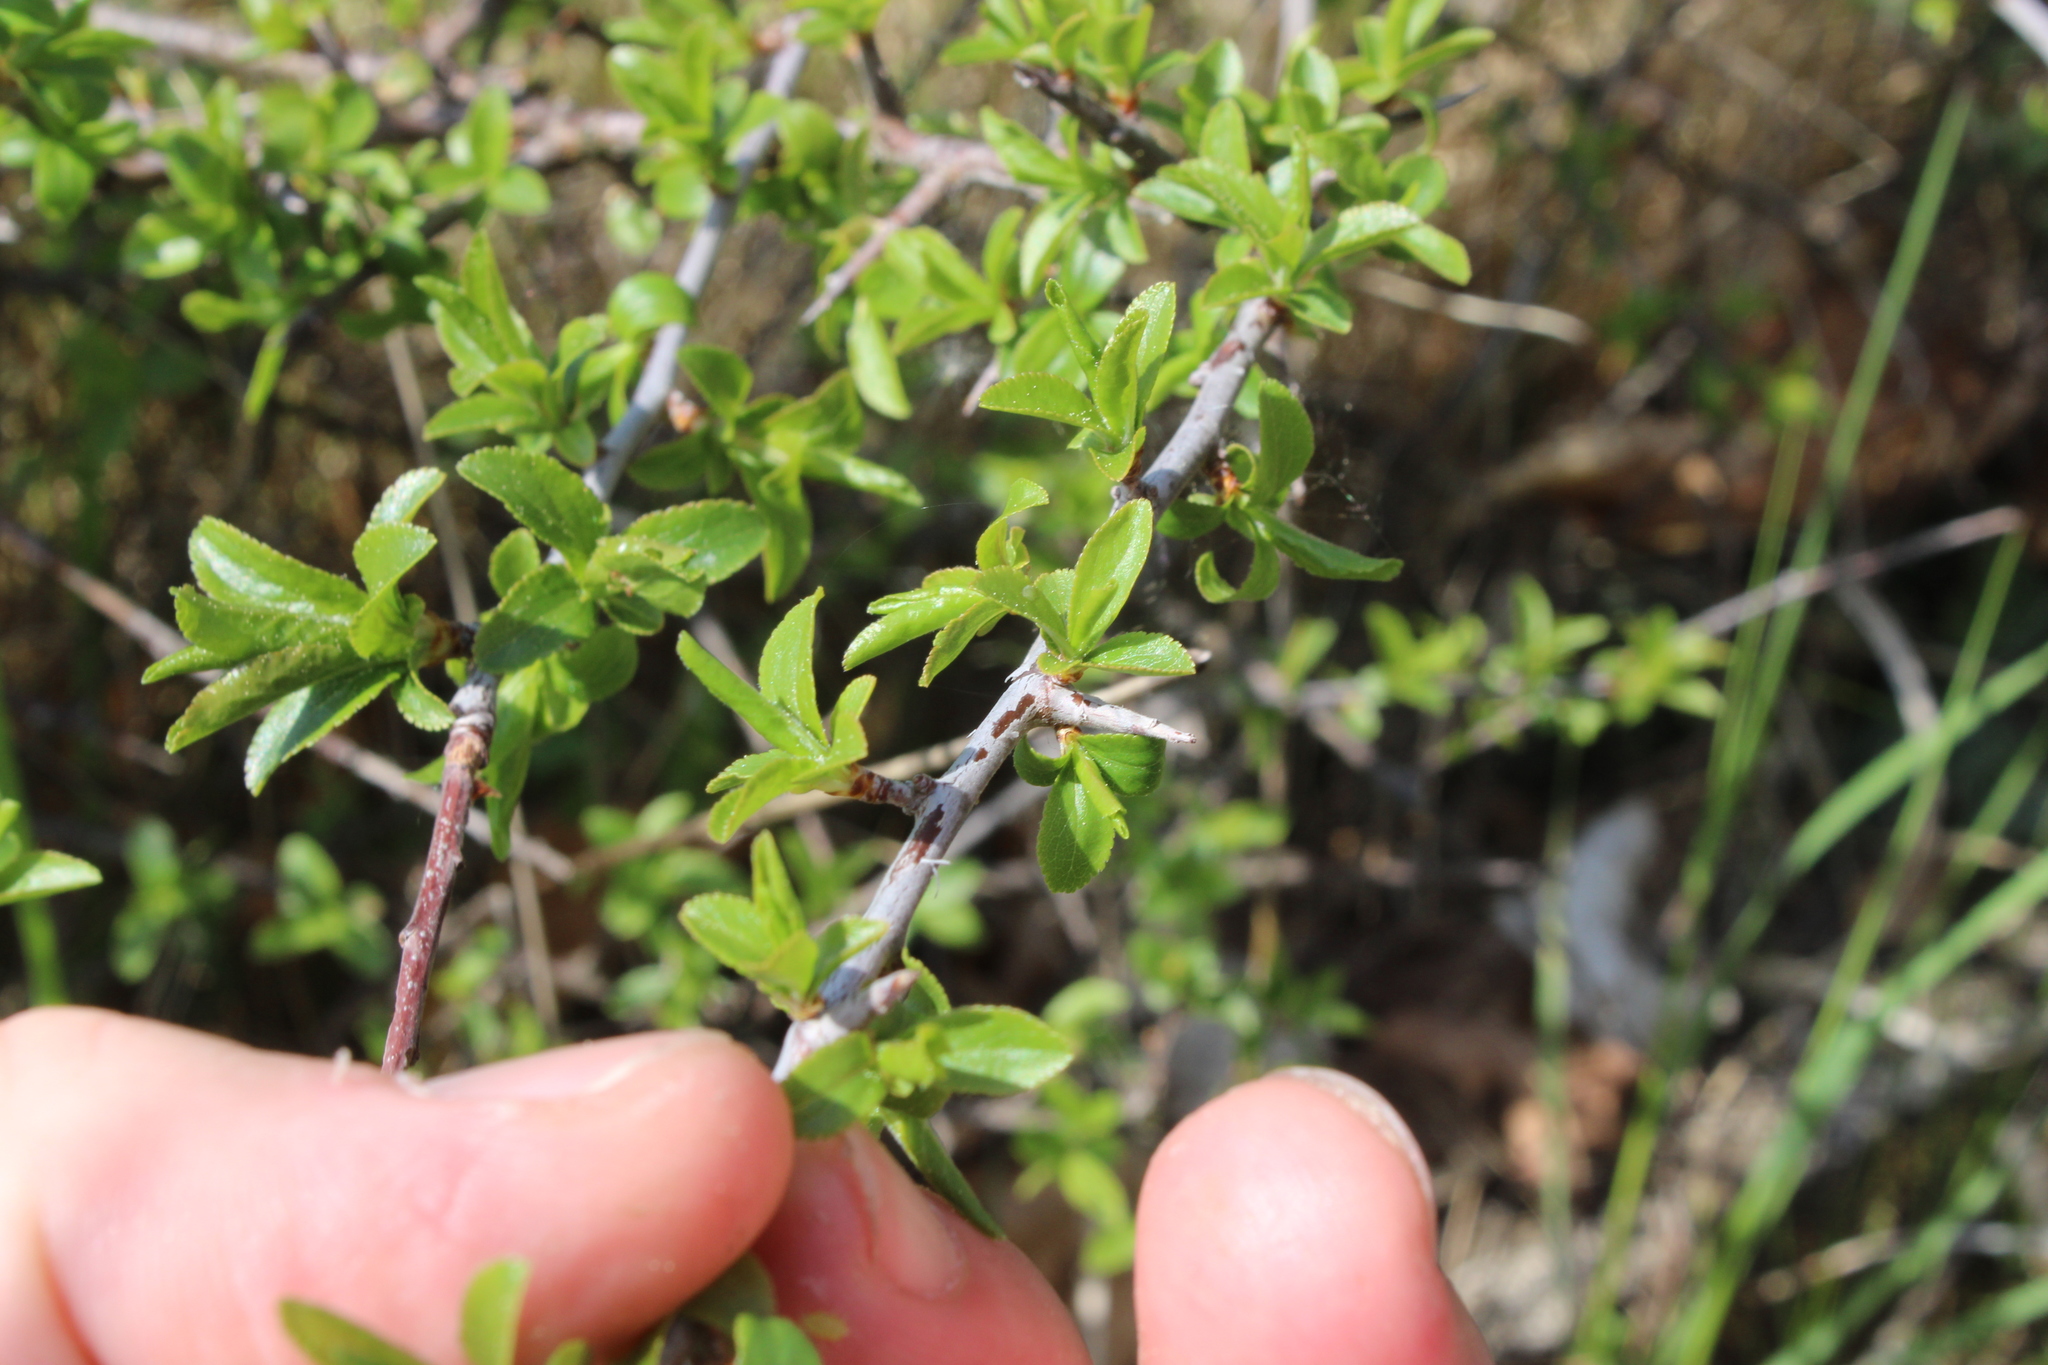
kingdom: Plantae
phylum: Tracheophyta
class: Magnoliopsida
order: Rosales
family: Rosaceae
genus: Prunus
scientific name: Prunus spinosa
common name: Blackthorn
